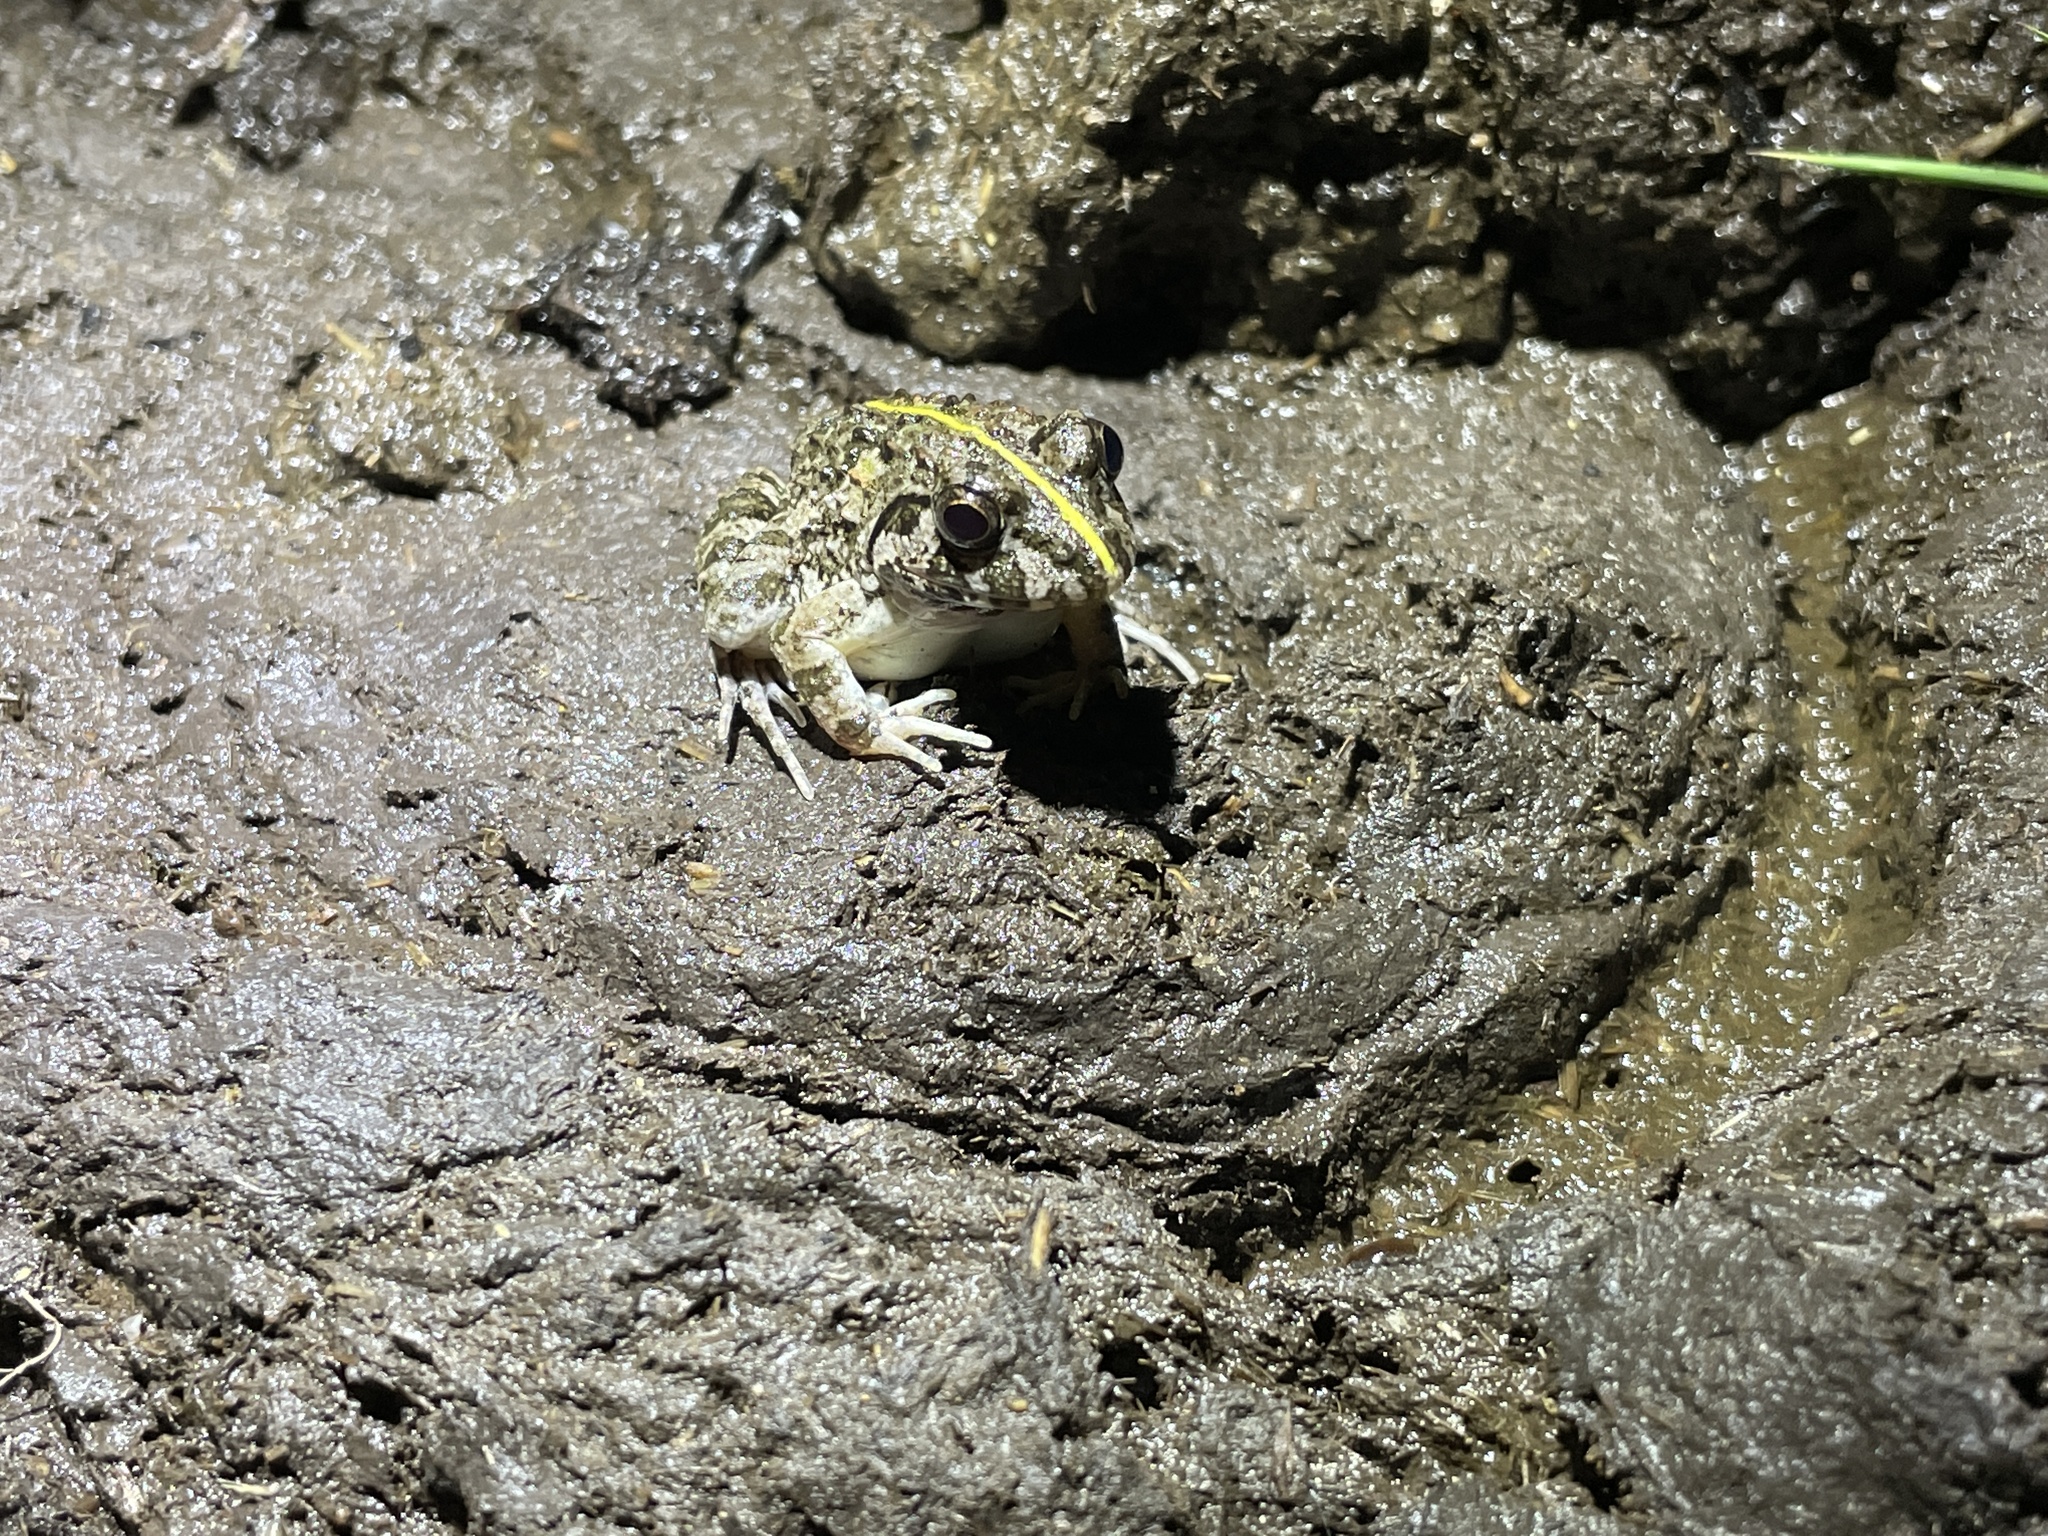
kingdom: Animalia
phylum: Chordata
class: Amphibia
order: Anura
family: Dicroglossidae
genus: Fejervarya
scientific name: Fejervarya multistriata
